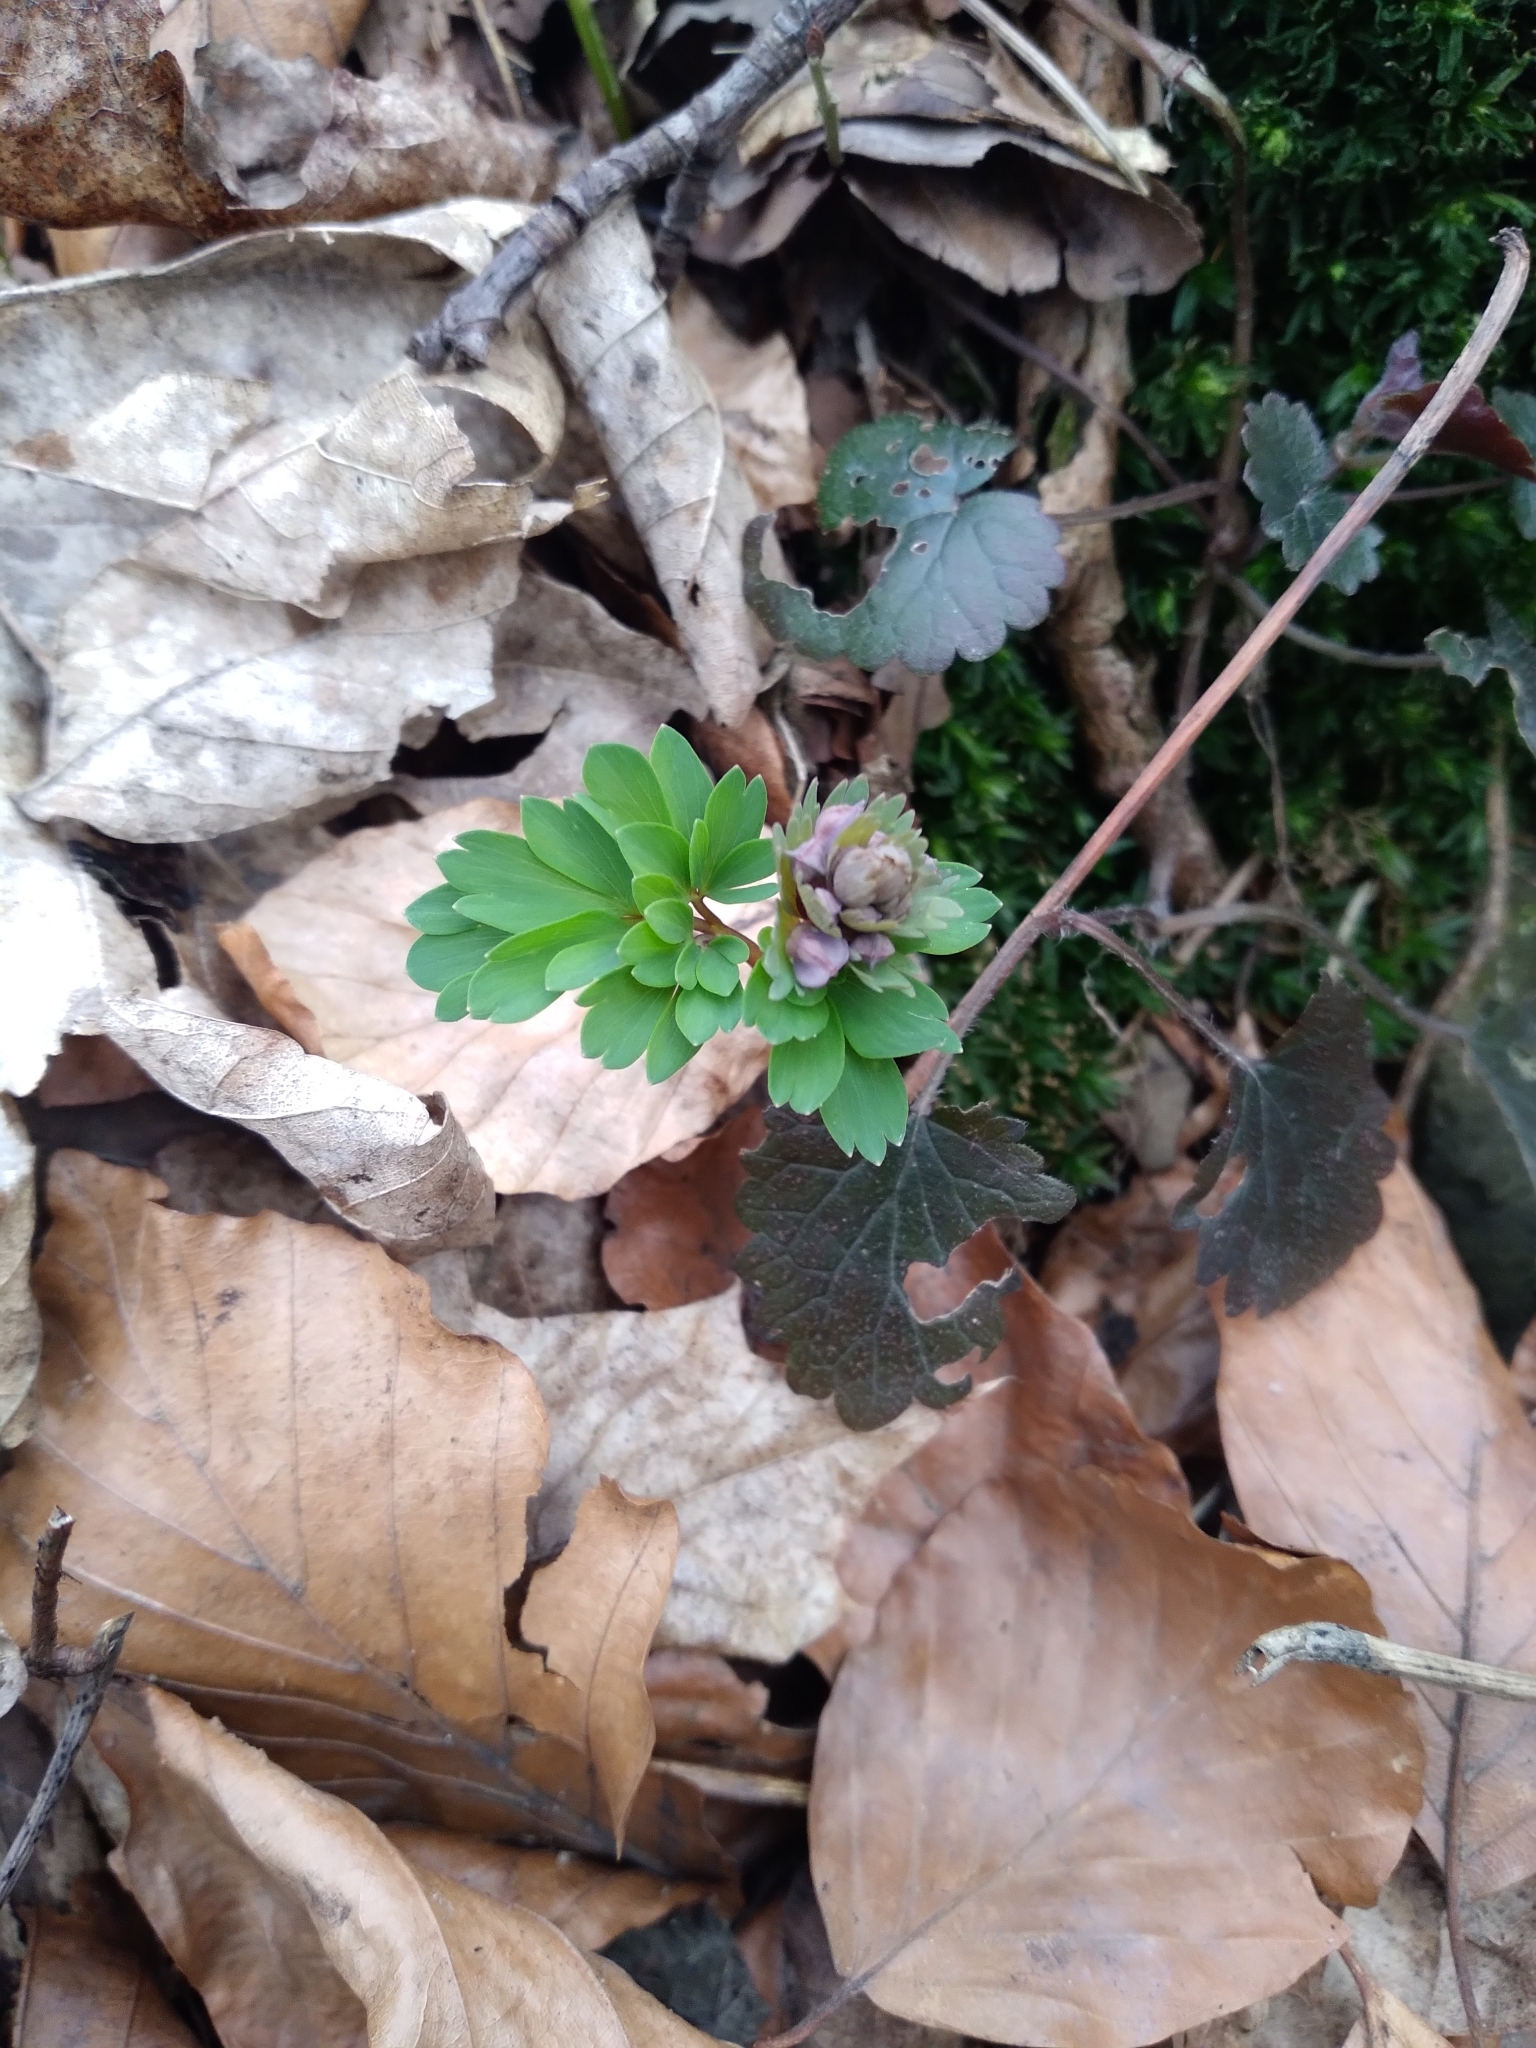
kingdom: Plantae
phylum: Tracheophyta
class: Magnoliopsida
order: Ranunculales
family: Papaveraceae
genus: Corydalis
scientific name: Corydalis solida
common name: Bird-in-a-bush
